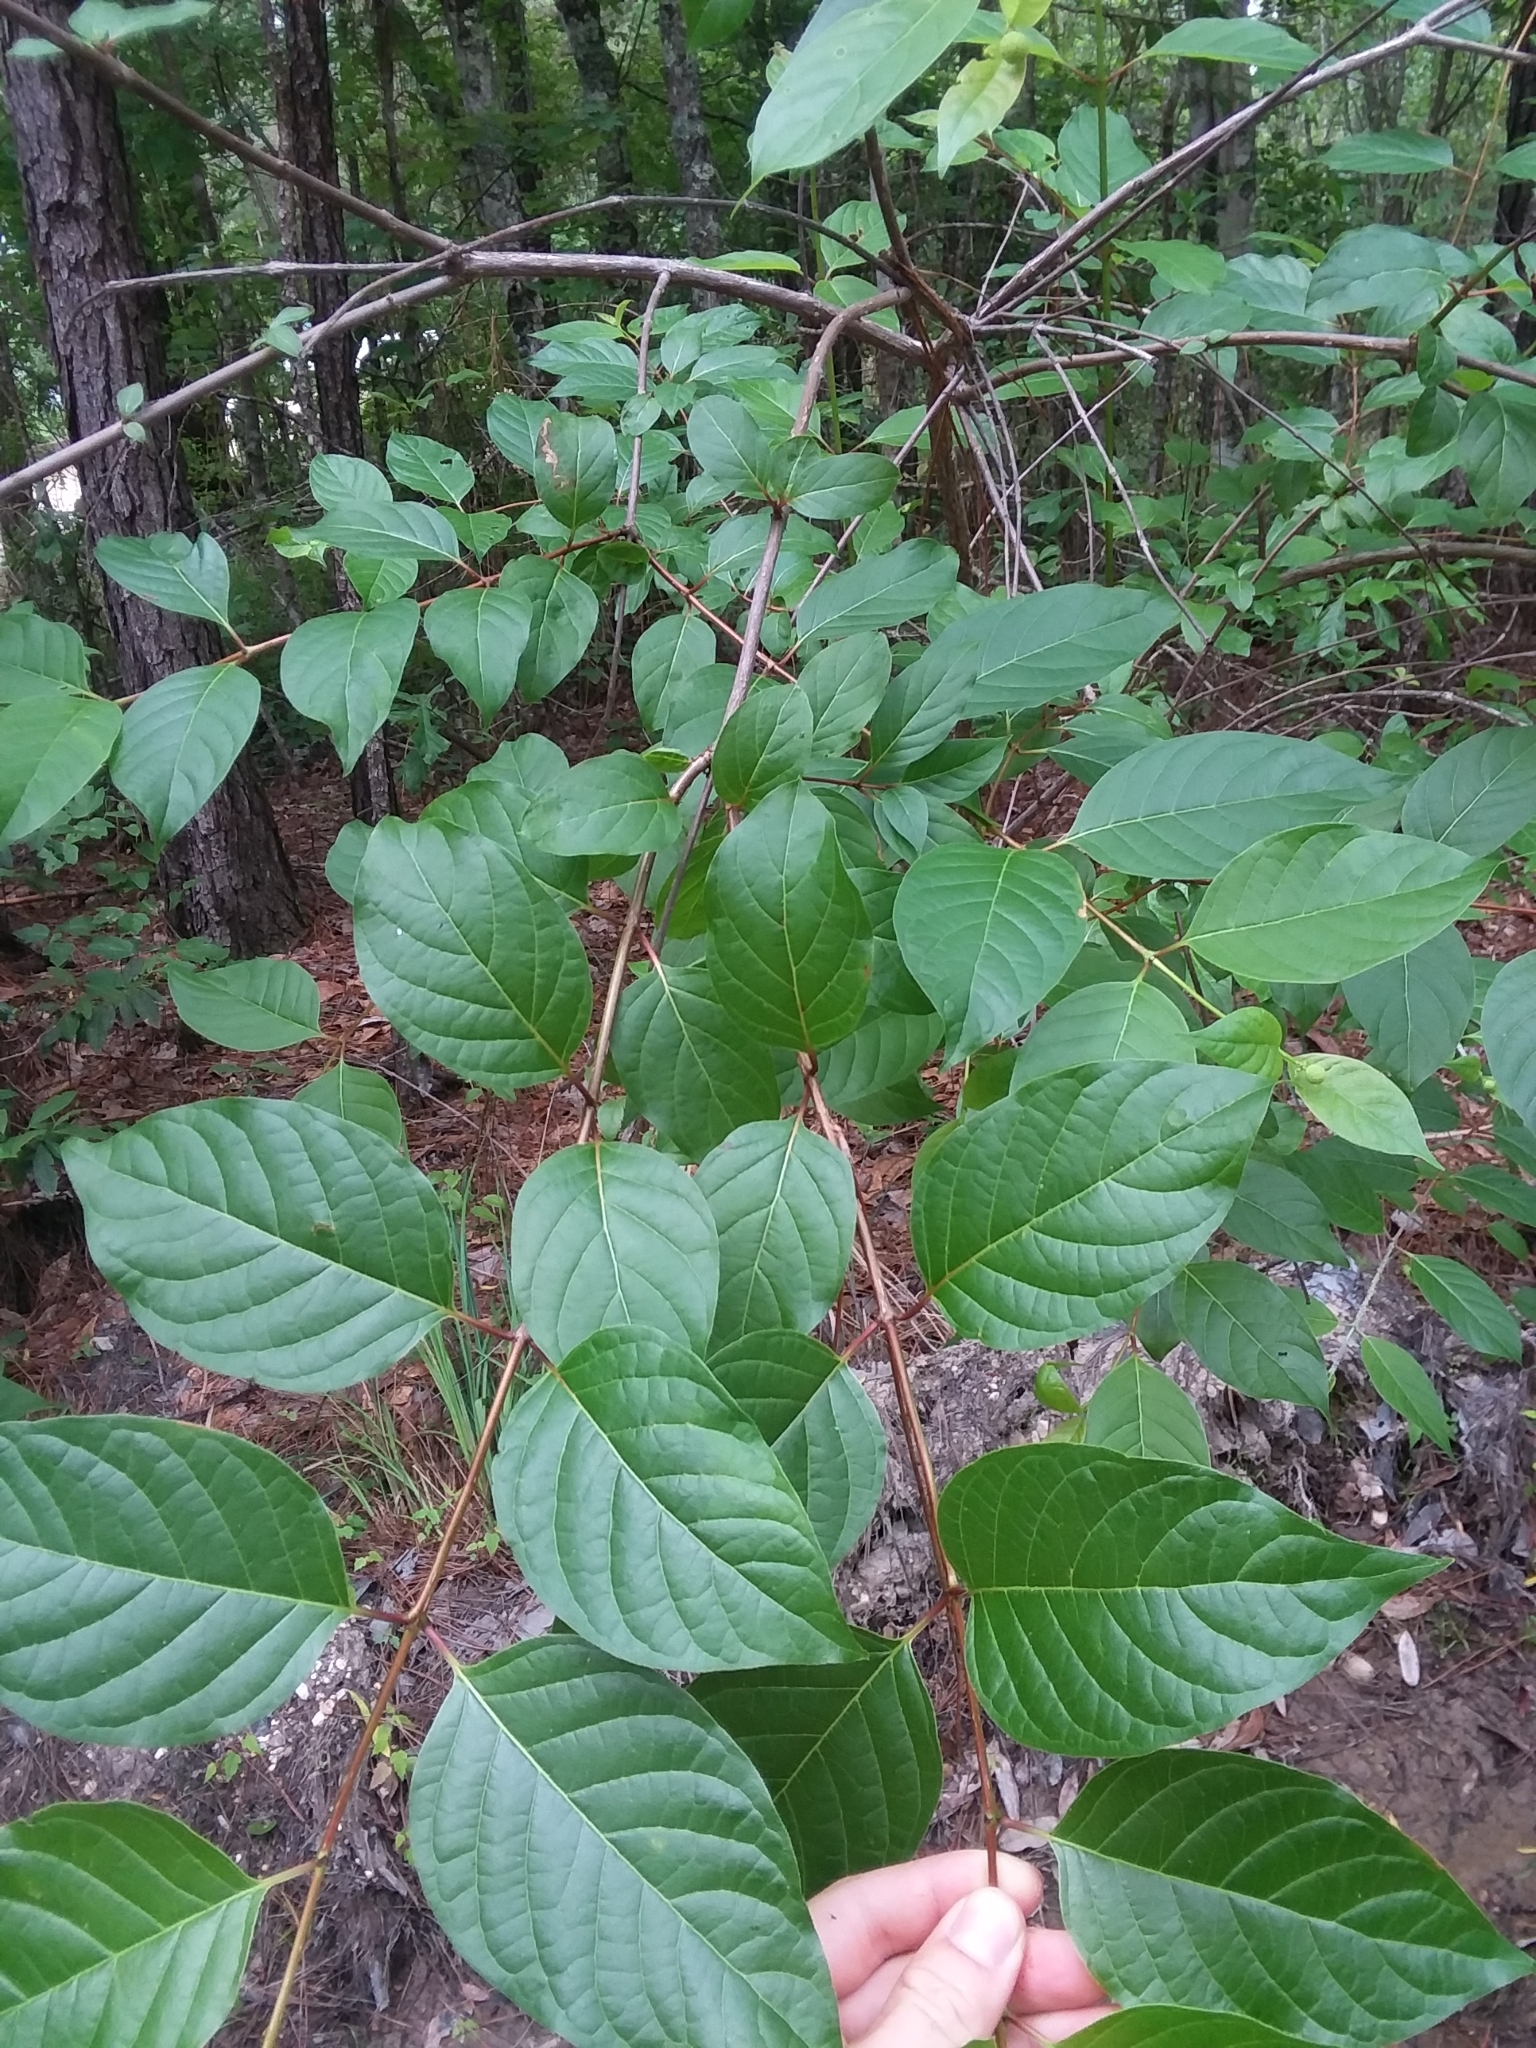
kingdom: Plantae
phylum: Tracheophyta
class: Magnoliopsida
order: Gentianales
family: Rubiaceae
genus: Cephalanthus
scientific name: Cephalanthus occidentalis
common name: Button-willow
